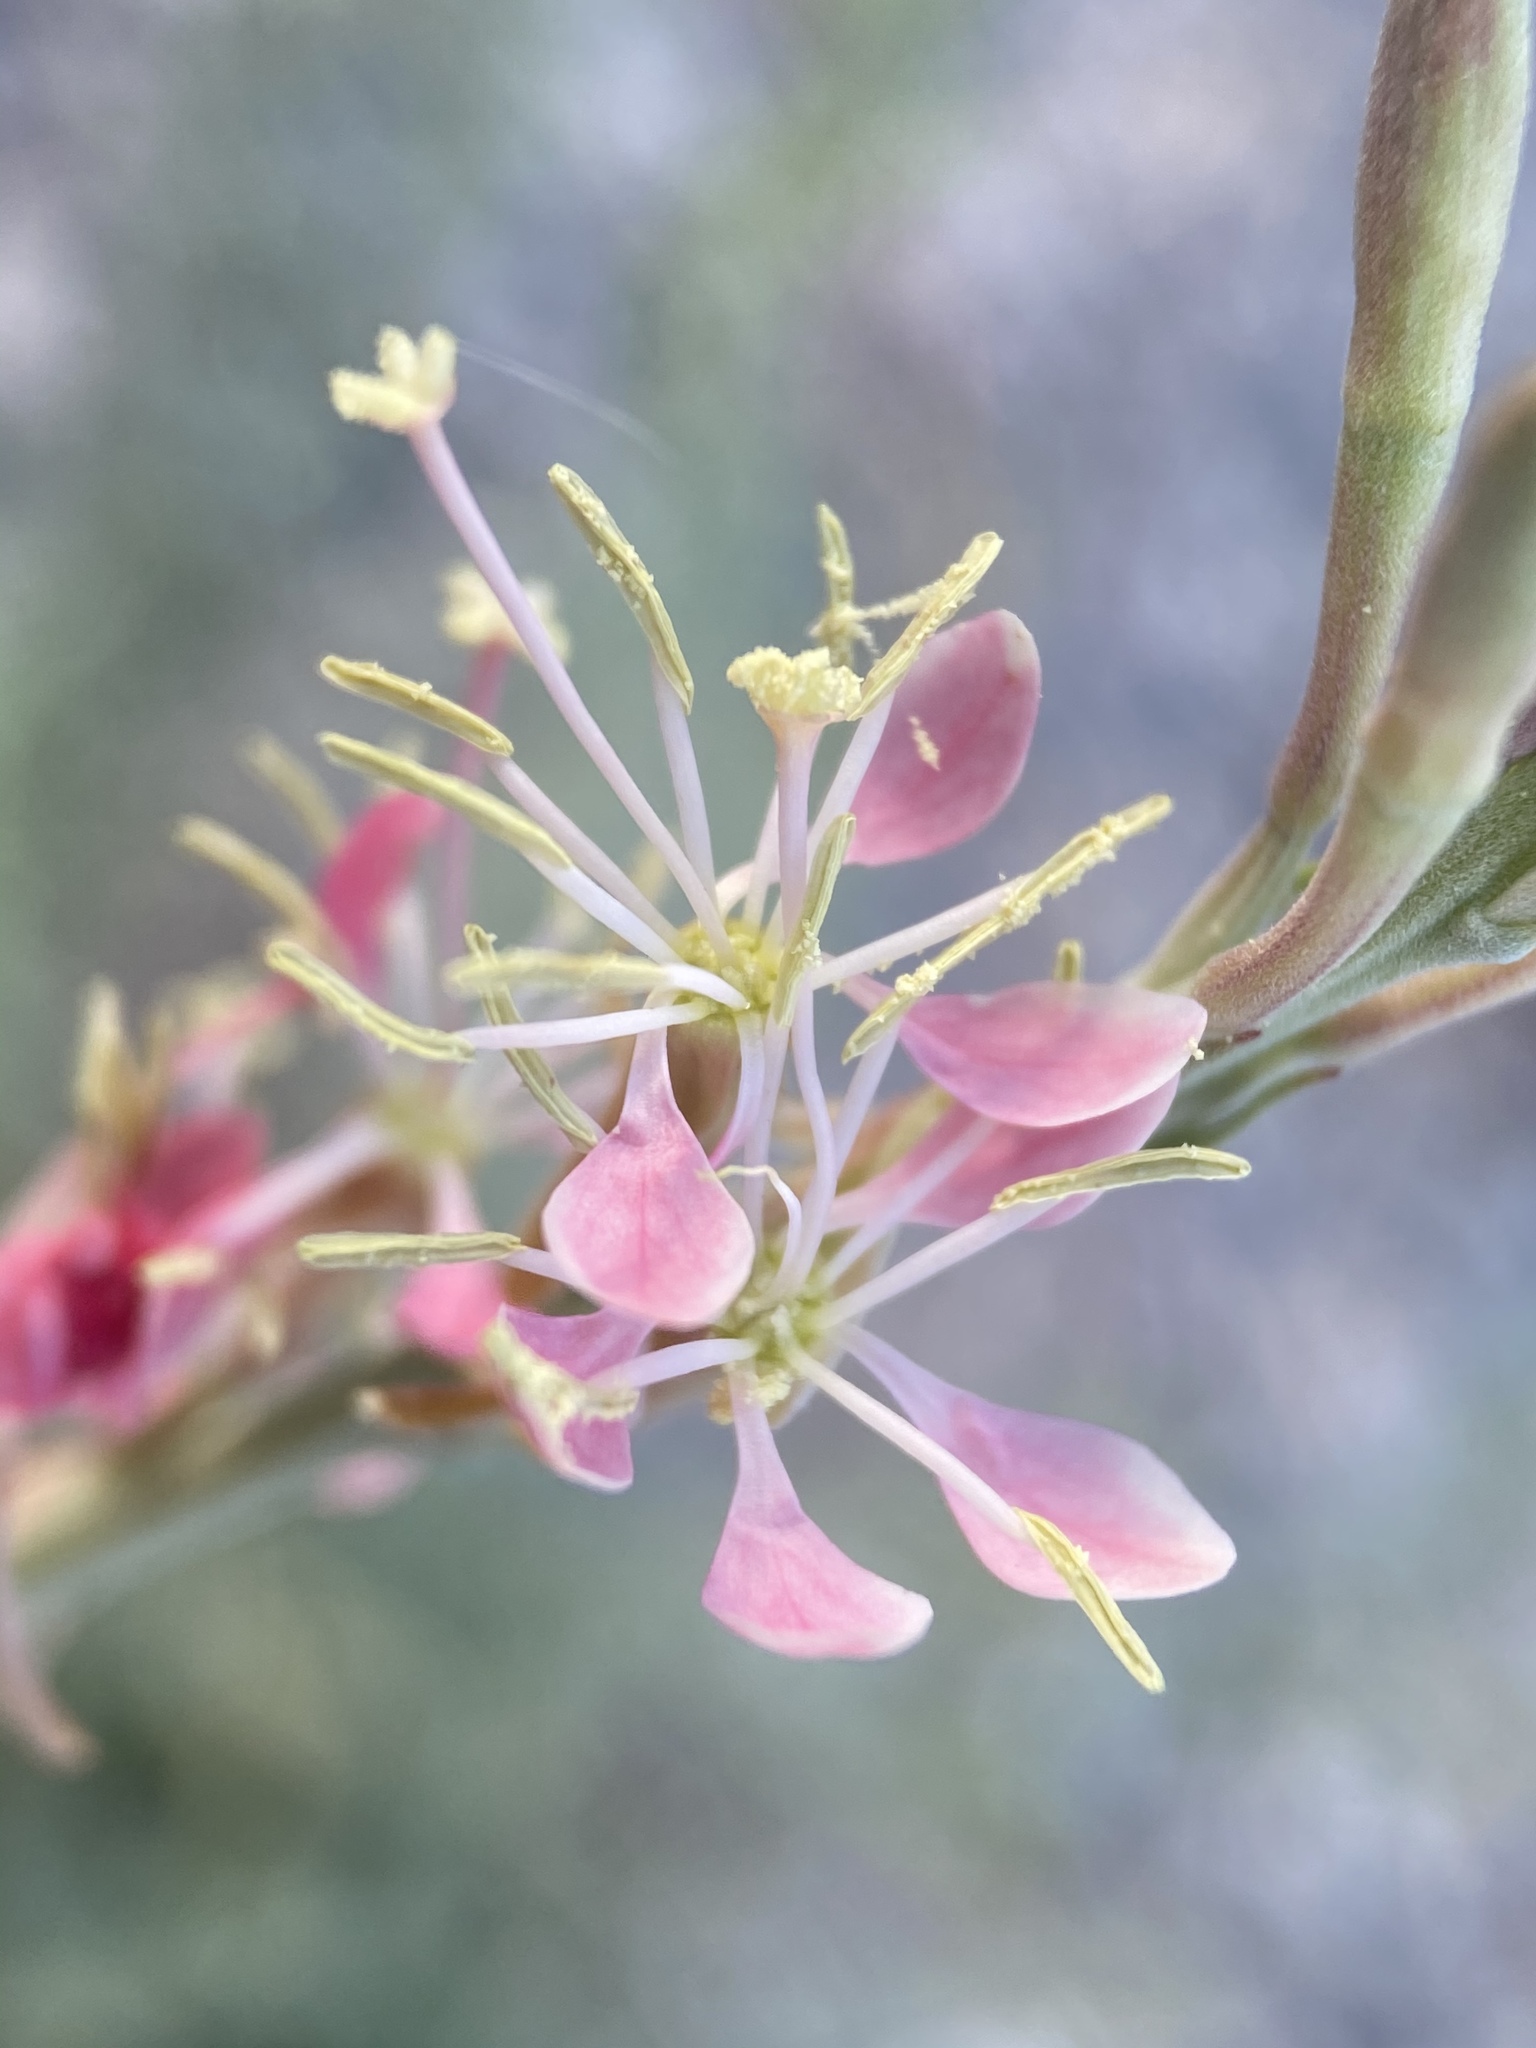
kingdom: Plantae
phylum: Tracheophyta
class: Magnoliopsida
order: Myrtales
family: Onagraceae
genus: Oenothera
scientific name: Oenothera suffrutescens
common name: Scarlet beeblossom
